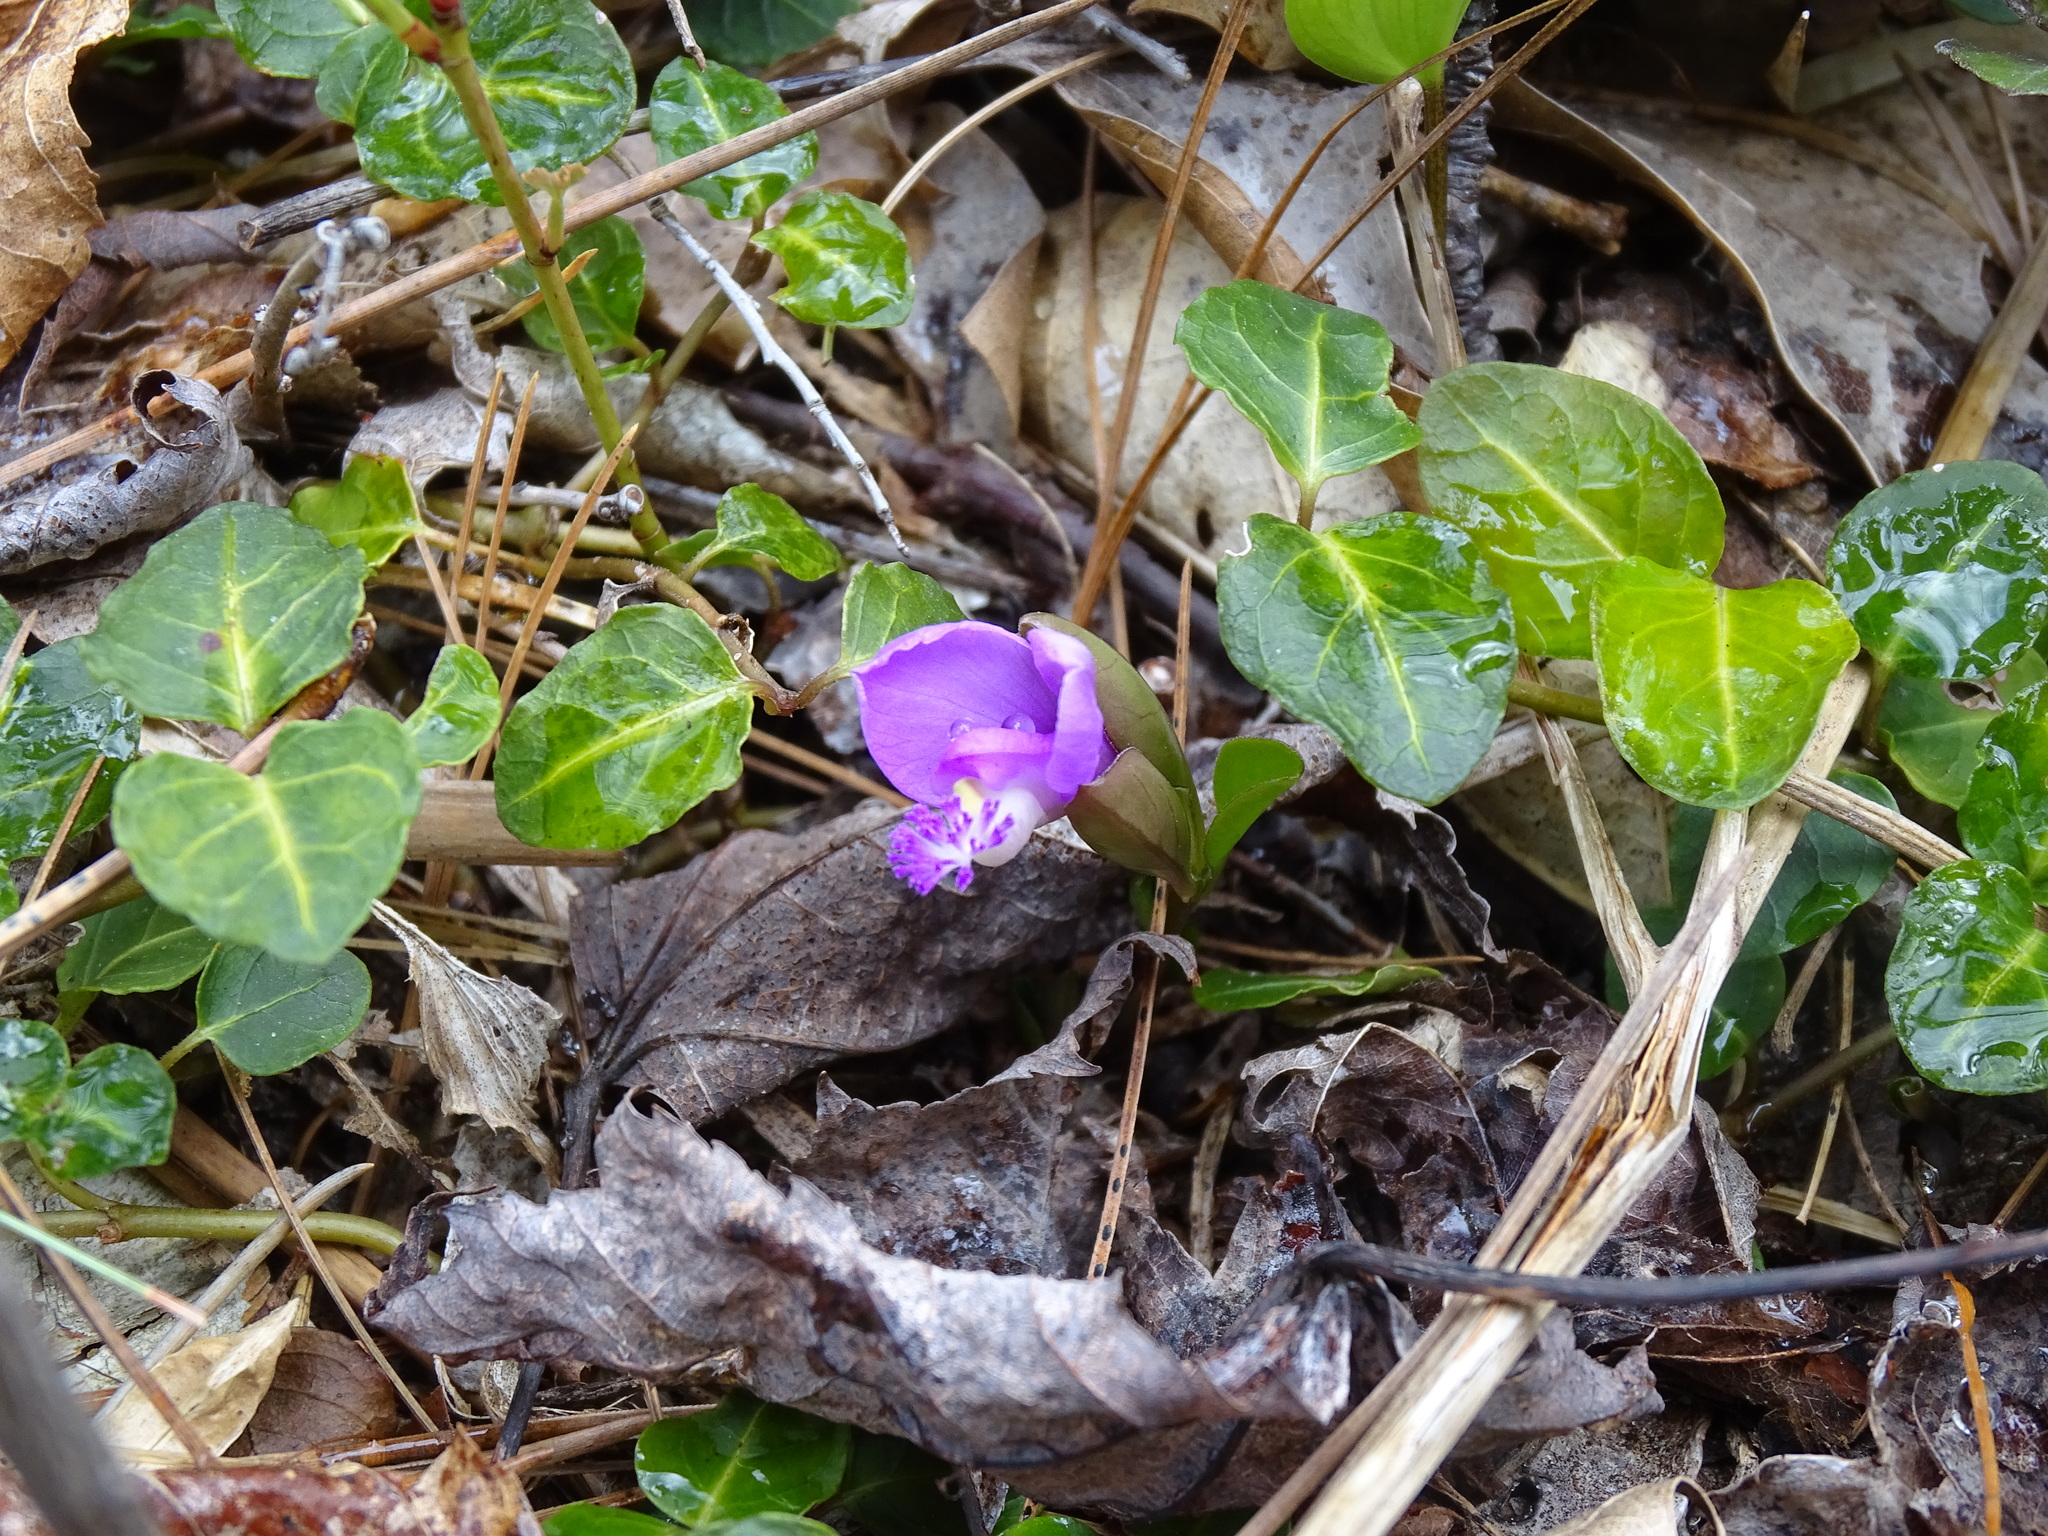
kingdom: Plantae
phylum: Tracheophyta
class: Magnoliopsida
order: Fabales
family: Polygalaceae
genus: Polygaloides
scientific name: Polygaloides paucifolia
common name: Bird-on-the-wing
